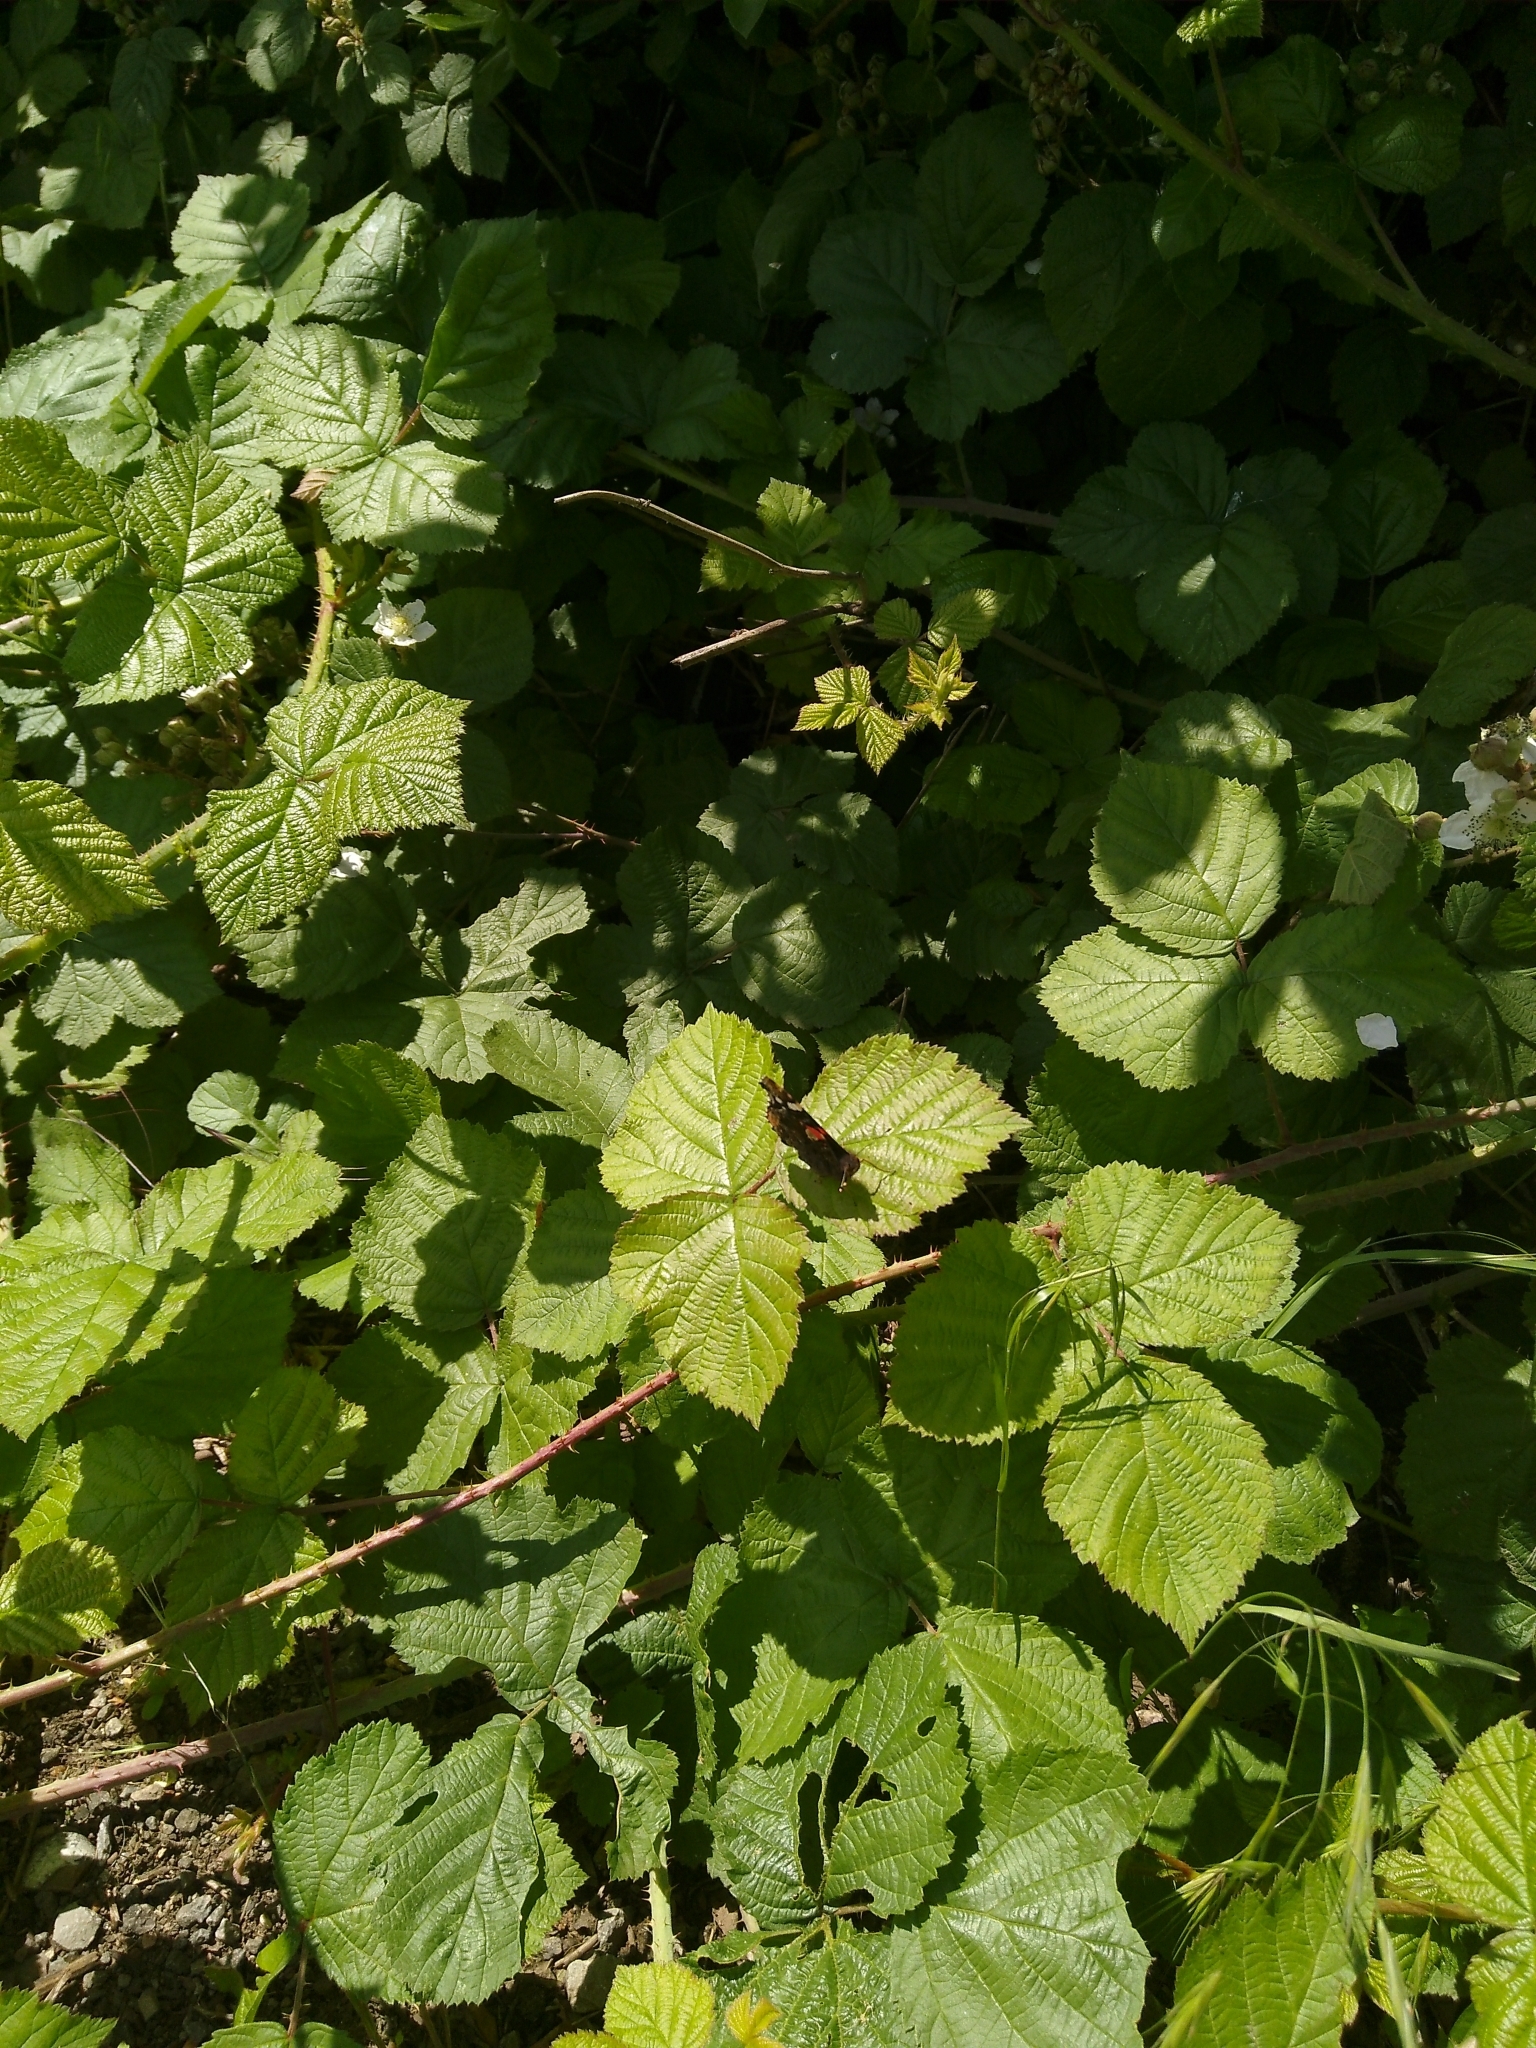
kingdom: Animalia
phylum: Arthropoda
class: Insecta
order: Lepidoptera
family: Nymphalidae
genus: Vanessa
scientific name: Vanessa atalanta
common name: Red admiral
